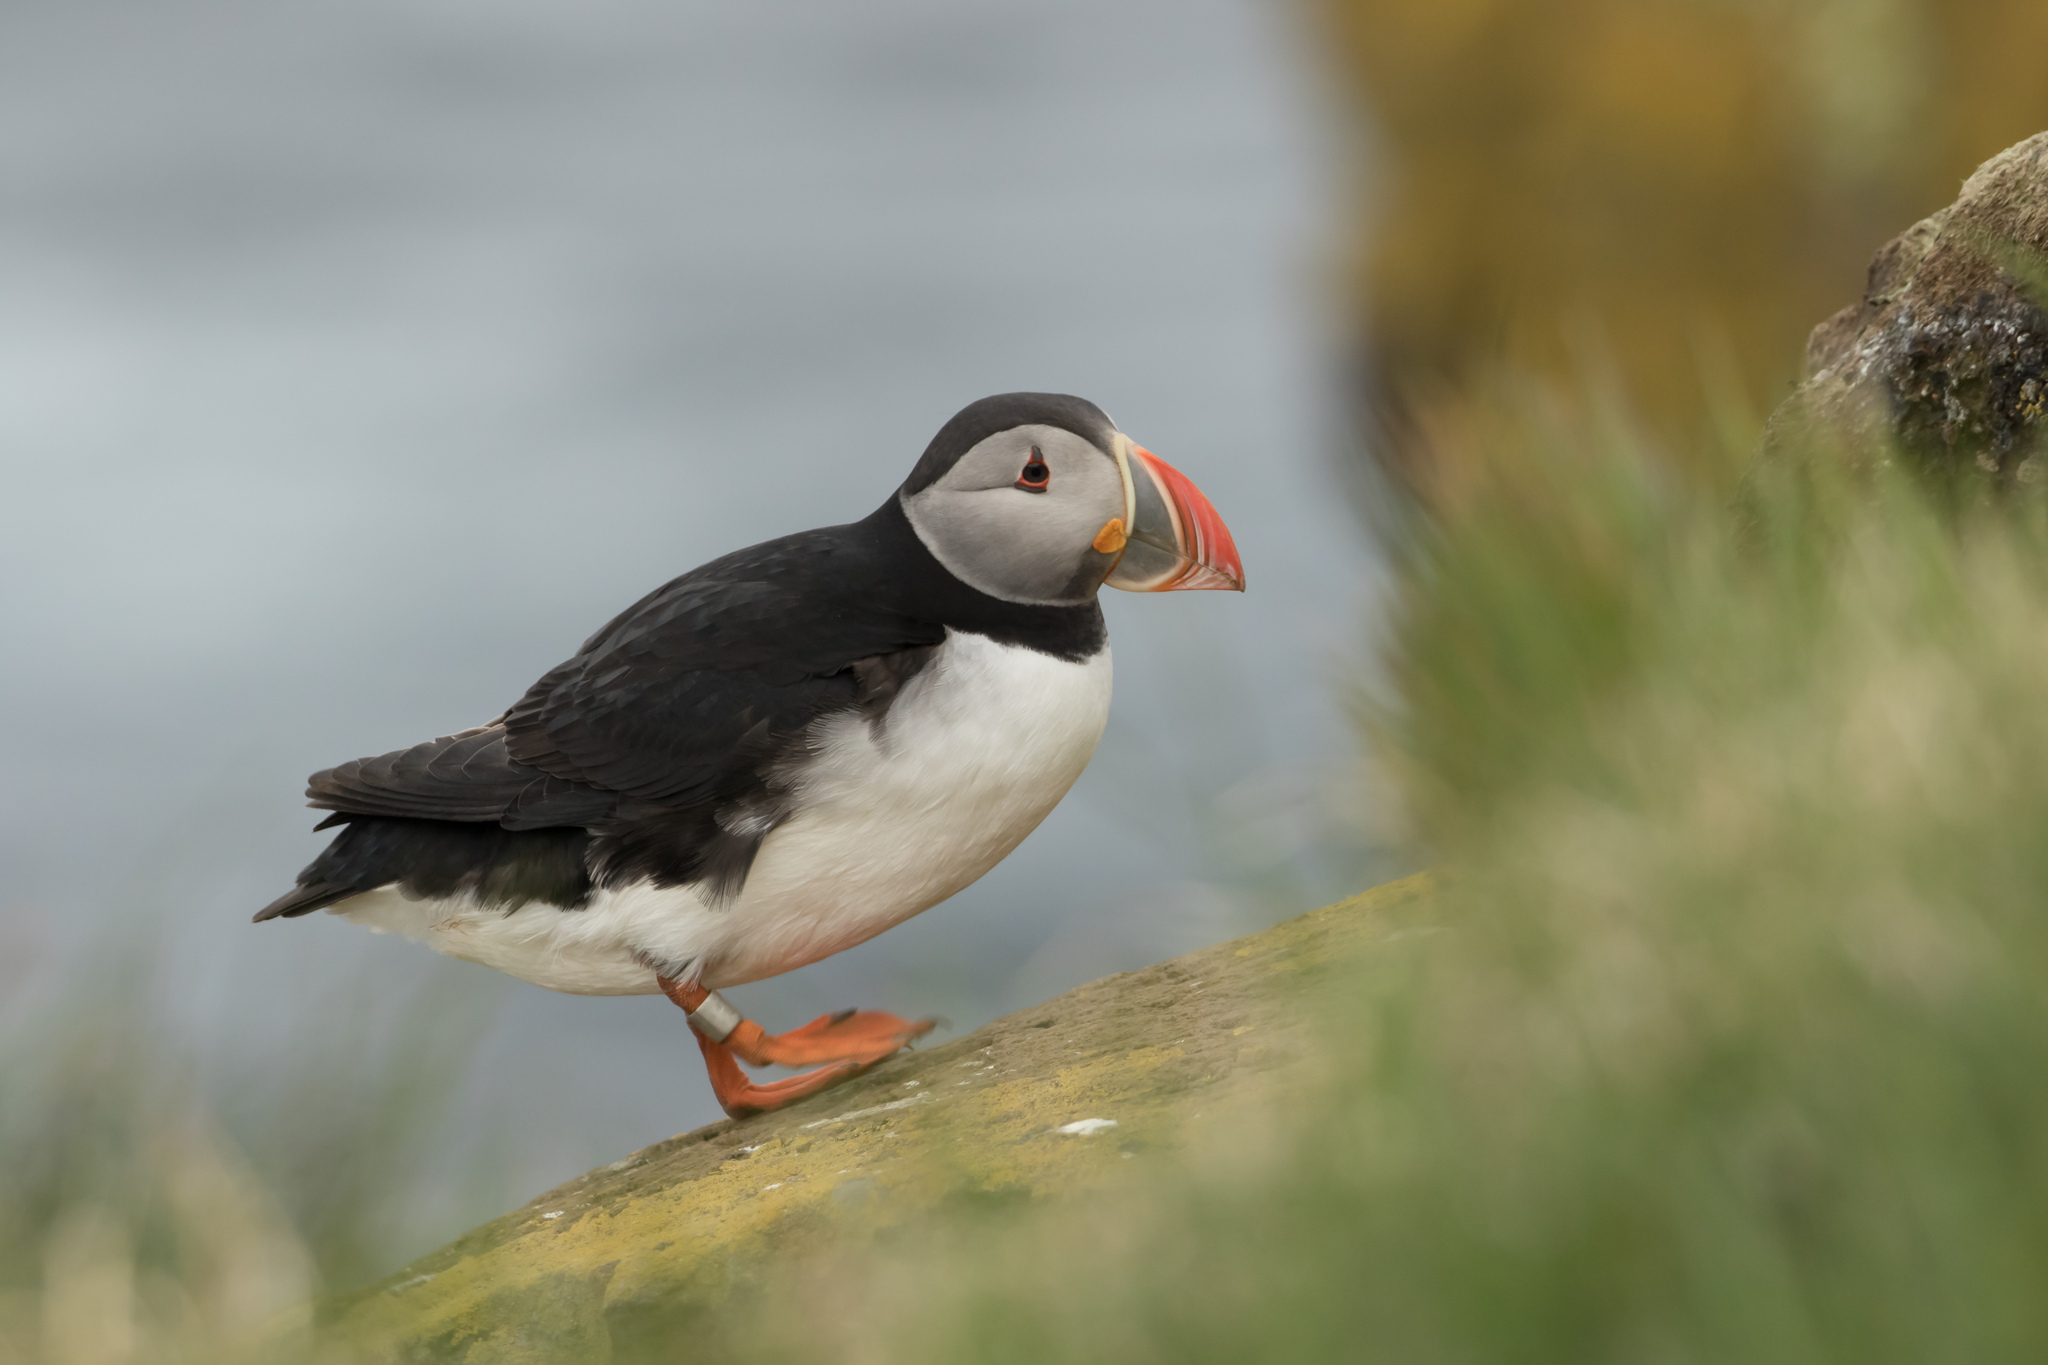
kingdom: Animalia
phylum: Chordata
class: Aves
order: Charadriiformes
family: Alcidae
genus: Fratercula
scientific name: Fratercula arctica
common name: Atlantic puffin
